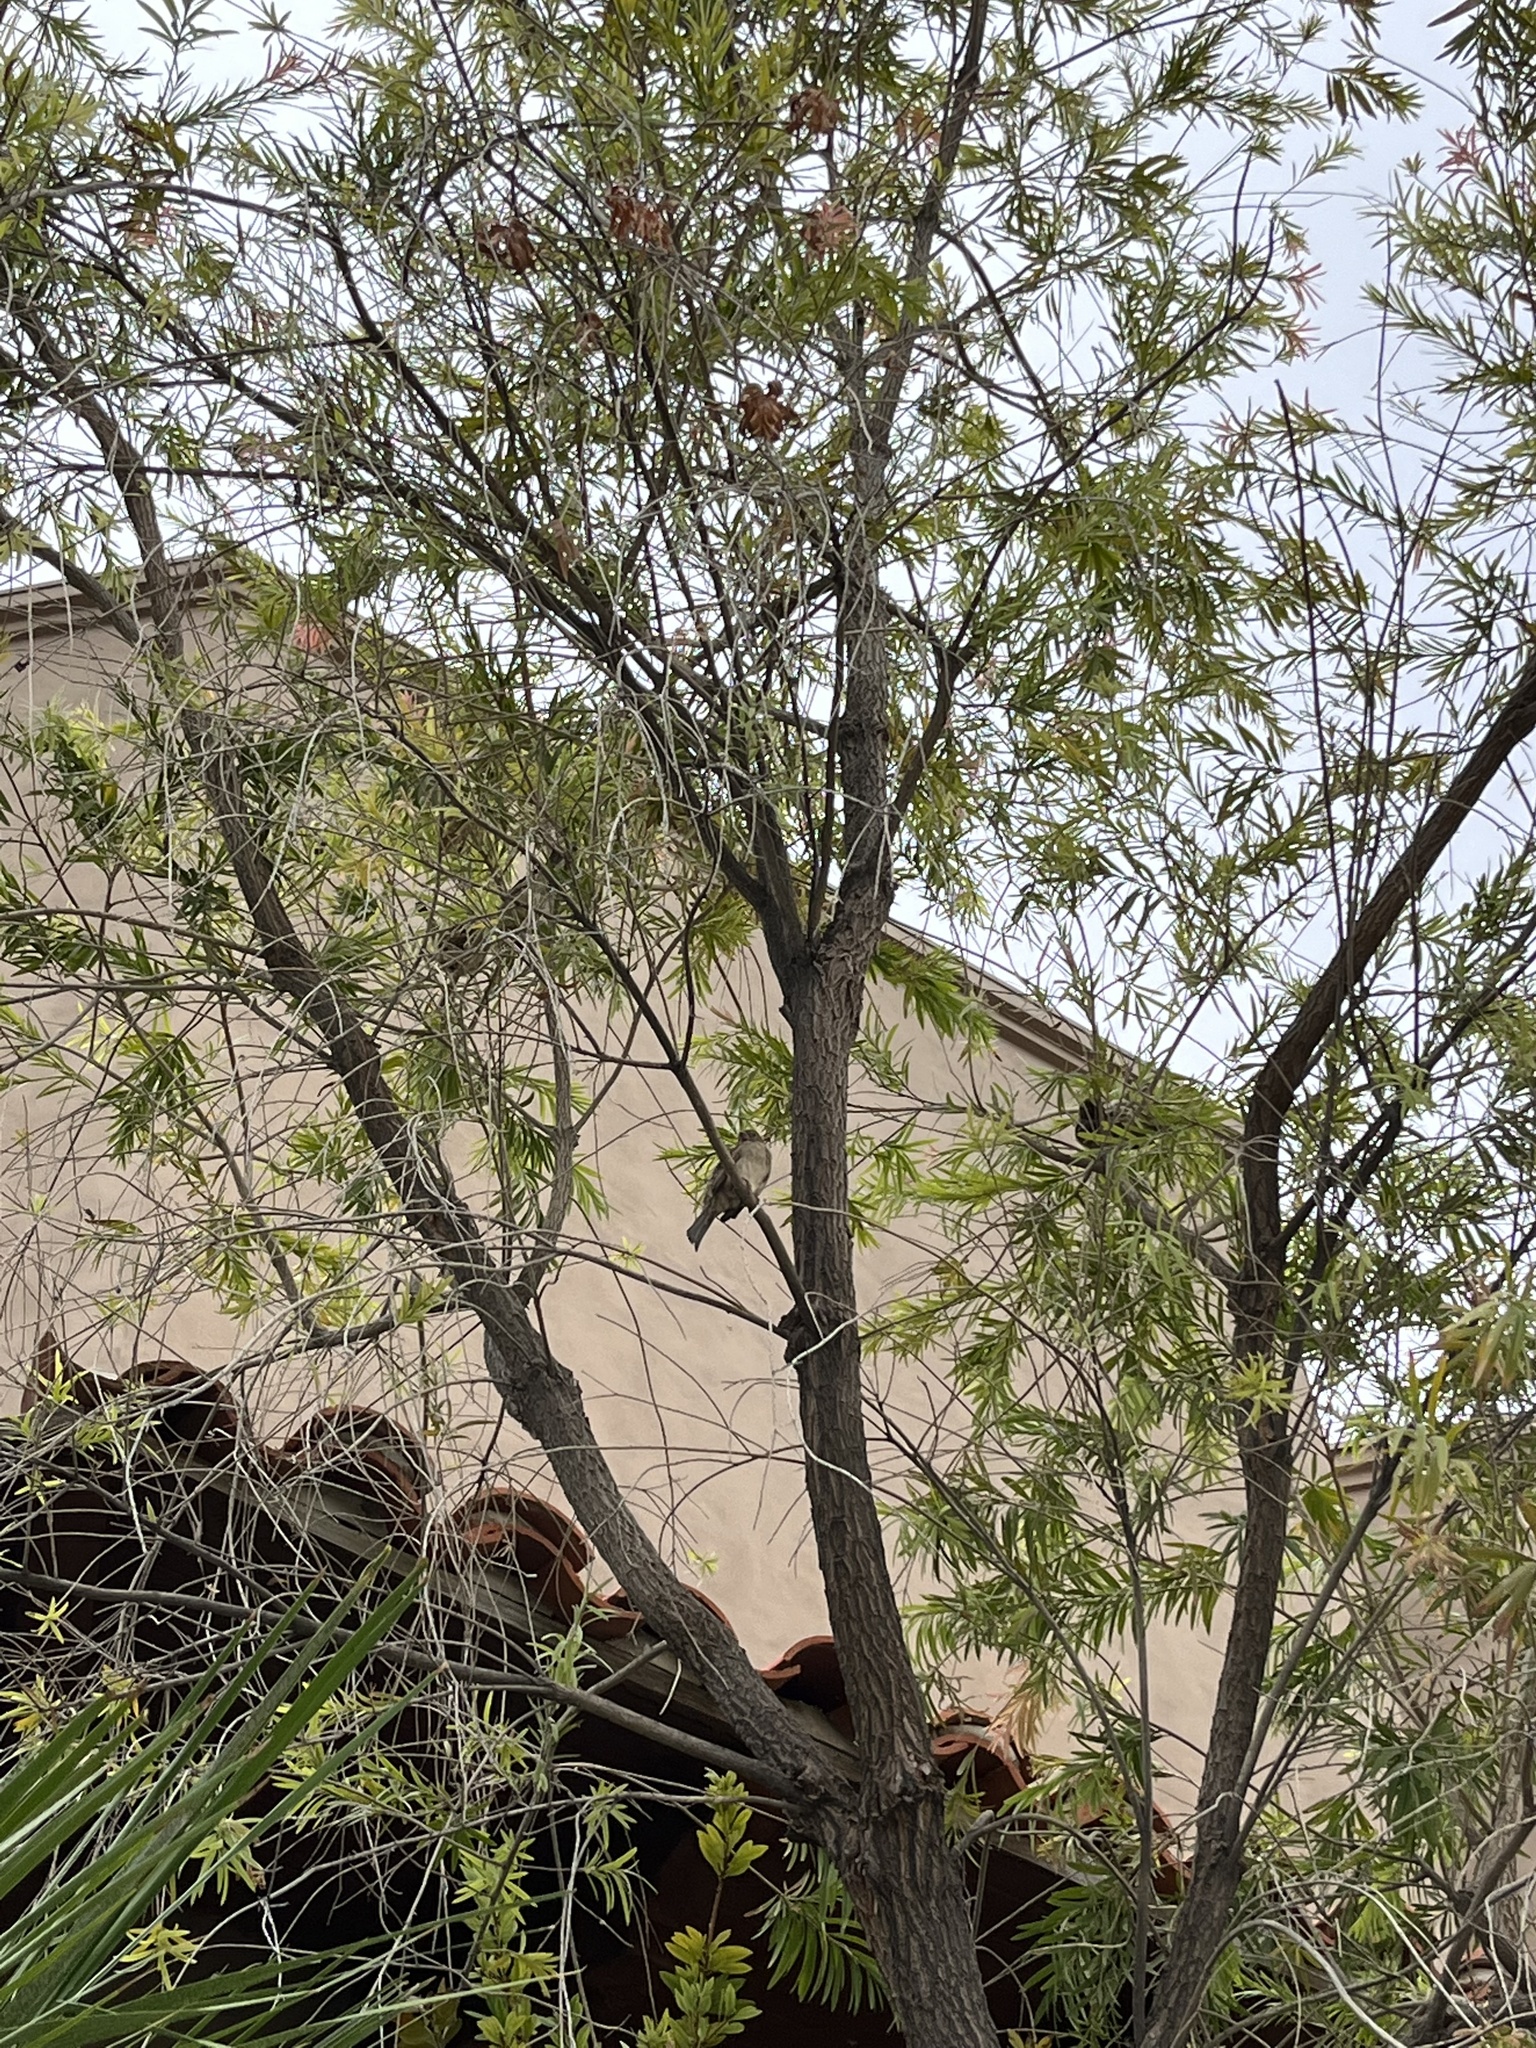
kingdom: Animalia
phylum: Chordata
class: Aves
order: Passeriformes
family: Passeridae
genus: Passer
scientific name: Passer domesticus
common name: House sparrow
